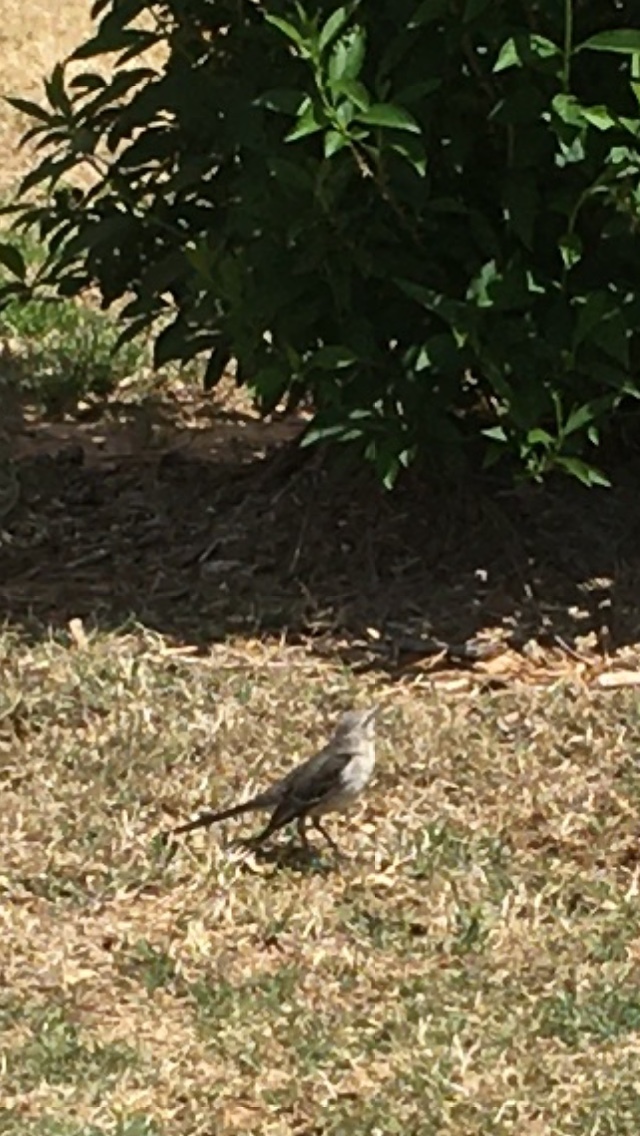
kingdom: Animalia
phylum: Chordata
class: Aves
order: Passeriformes
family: Mimidae
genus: Mimus
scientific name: Mimus polyglottos
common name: Northern mockingbird
